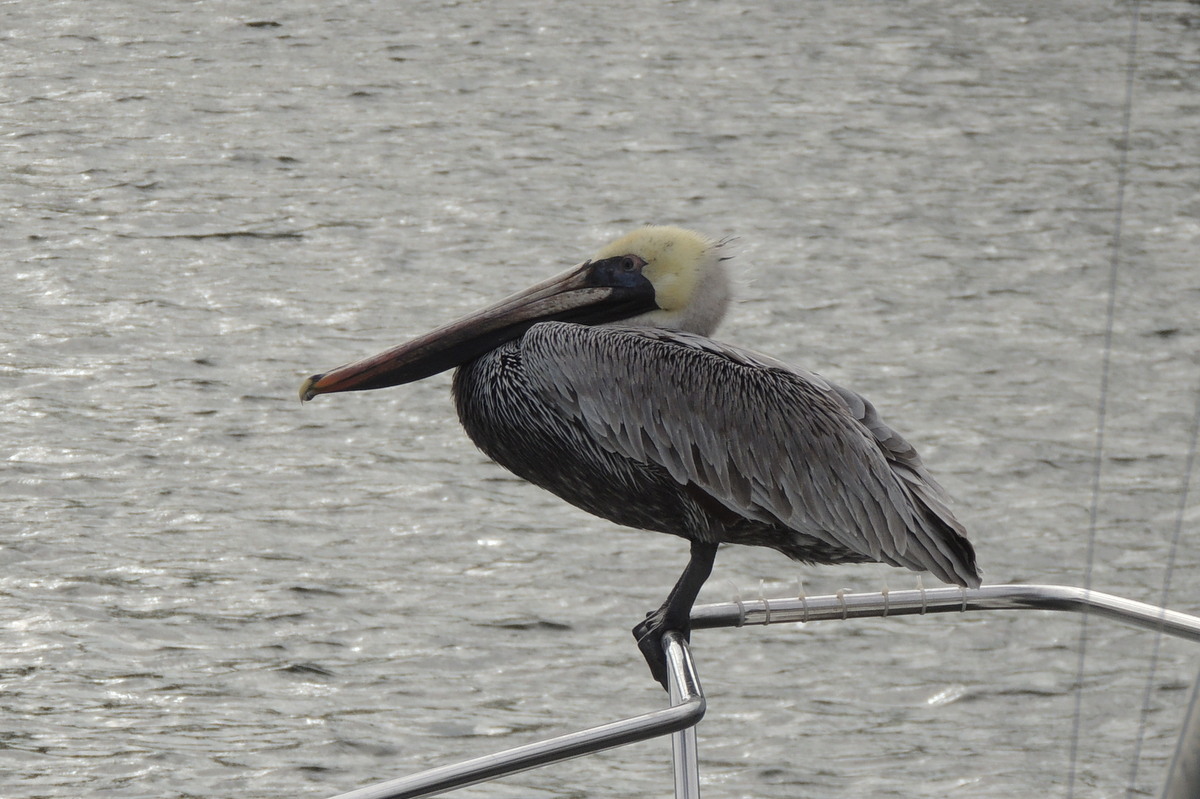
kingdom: Animalia
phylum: Chordata
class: Aves
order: Pelecaniformes
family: Pelecanidae
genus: Pelecanus
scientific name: Pelecanus occidentalis
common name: Brown pelican
